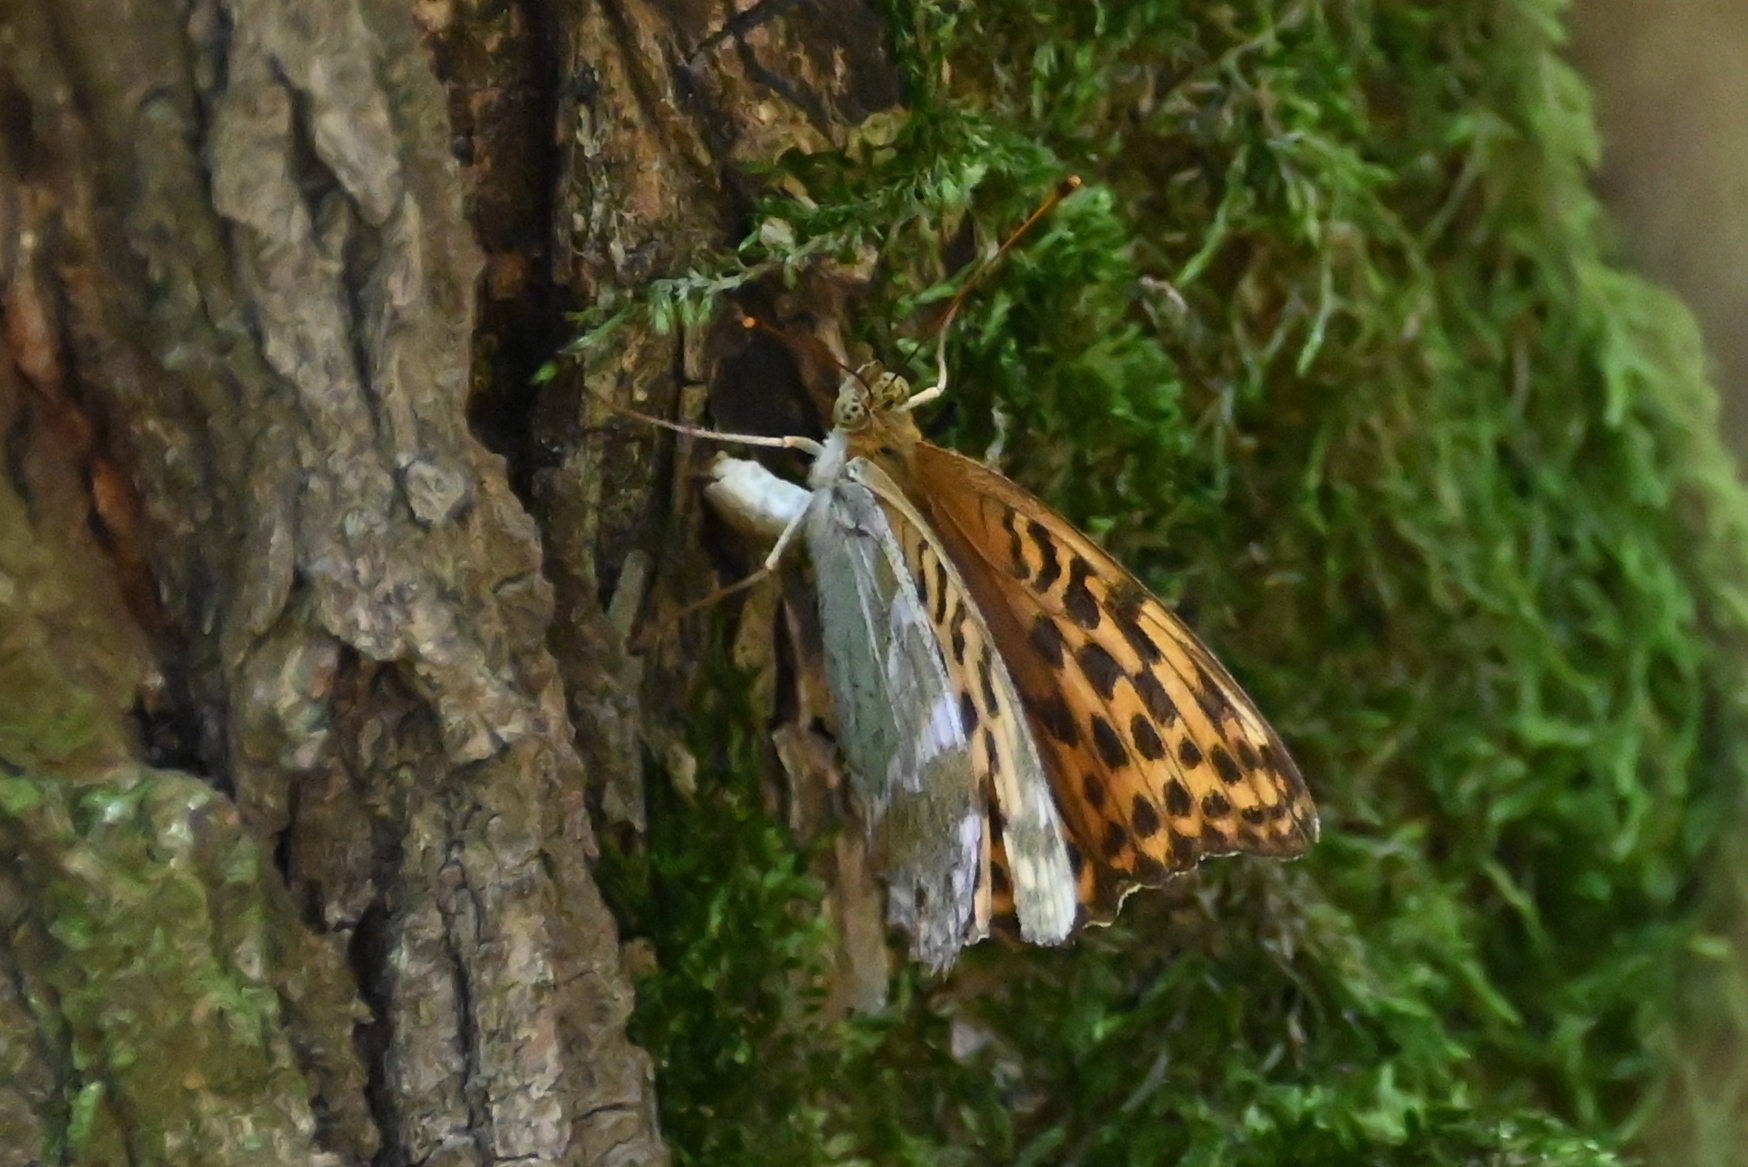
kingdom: Animalia
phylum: Arthropoda
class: Insecta
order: Lepidoptera
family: Nymphalidae
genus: Argynnis
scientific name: Argynnis paphia
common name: Silver-washed fritillary
